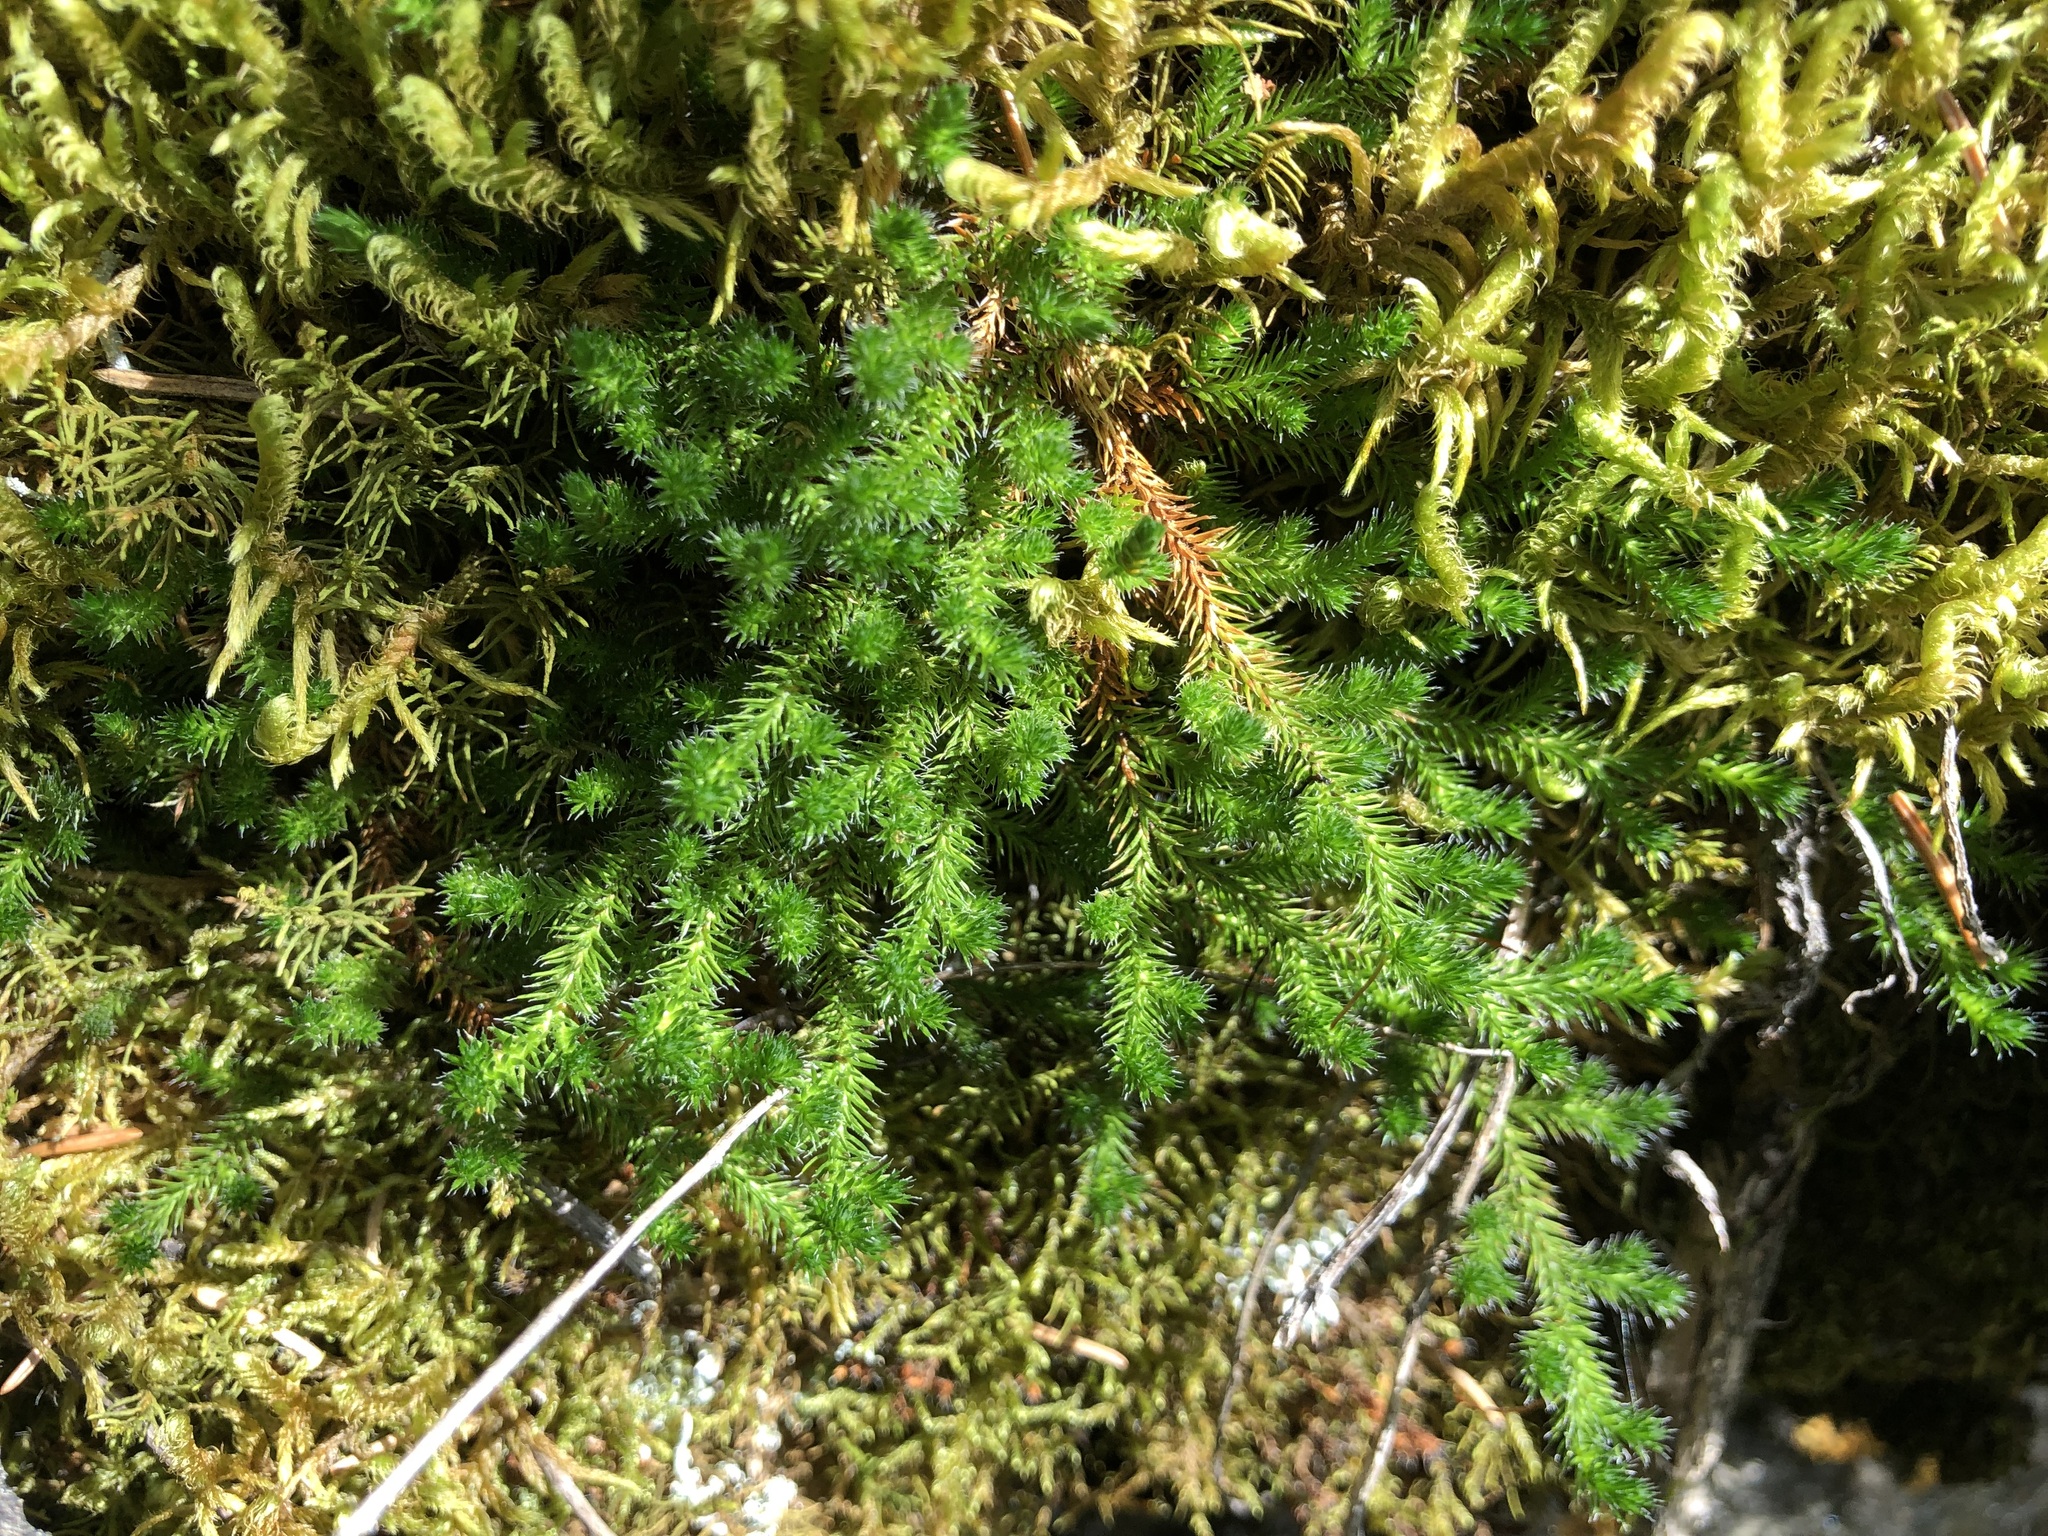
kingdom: Plantae
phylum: Tracheophyta
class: Lycopodiopsida
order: Selaginellales
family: Selaginellaceae
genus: Selaginella
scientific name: Selaginella sibirica
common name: Siberian spikemoss
